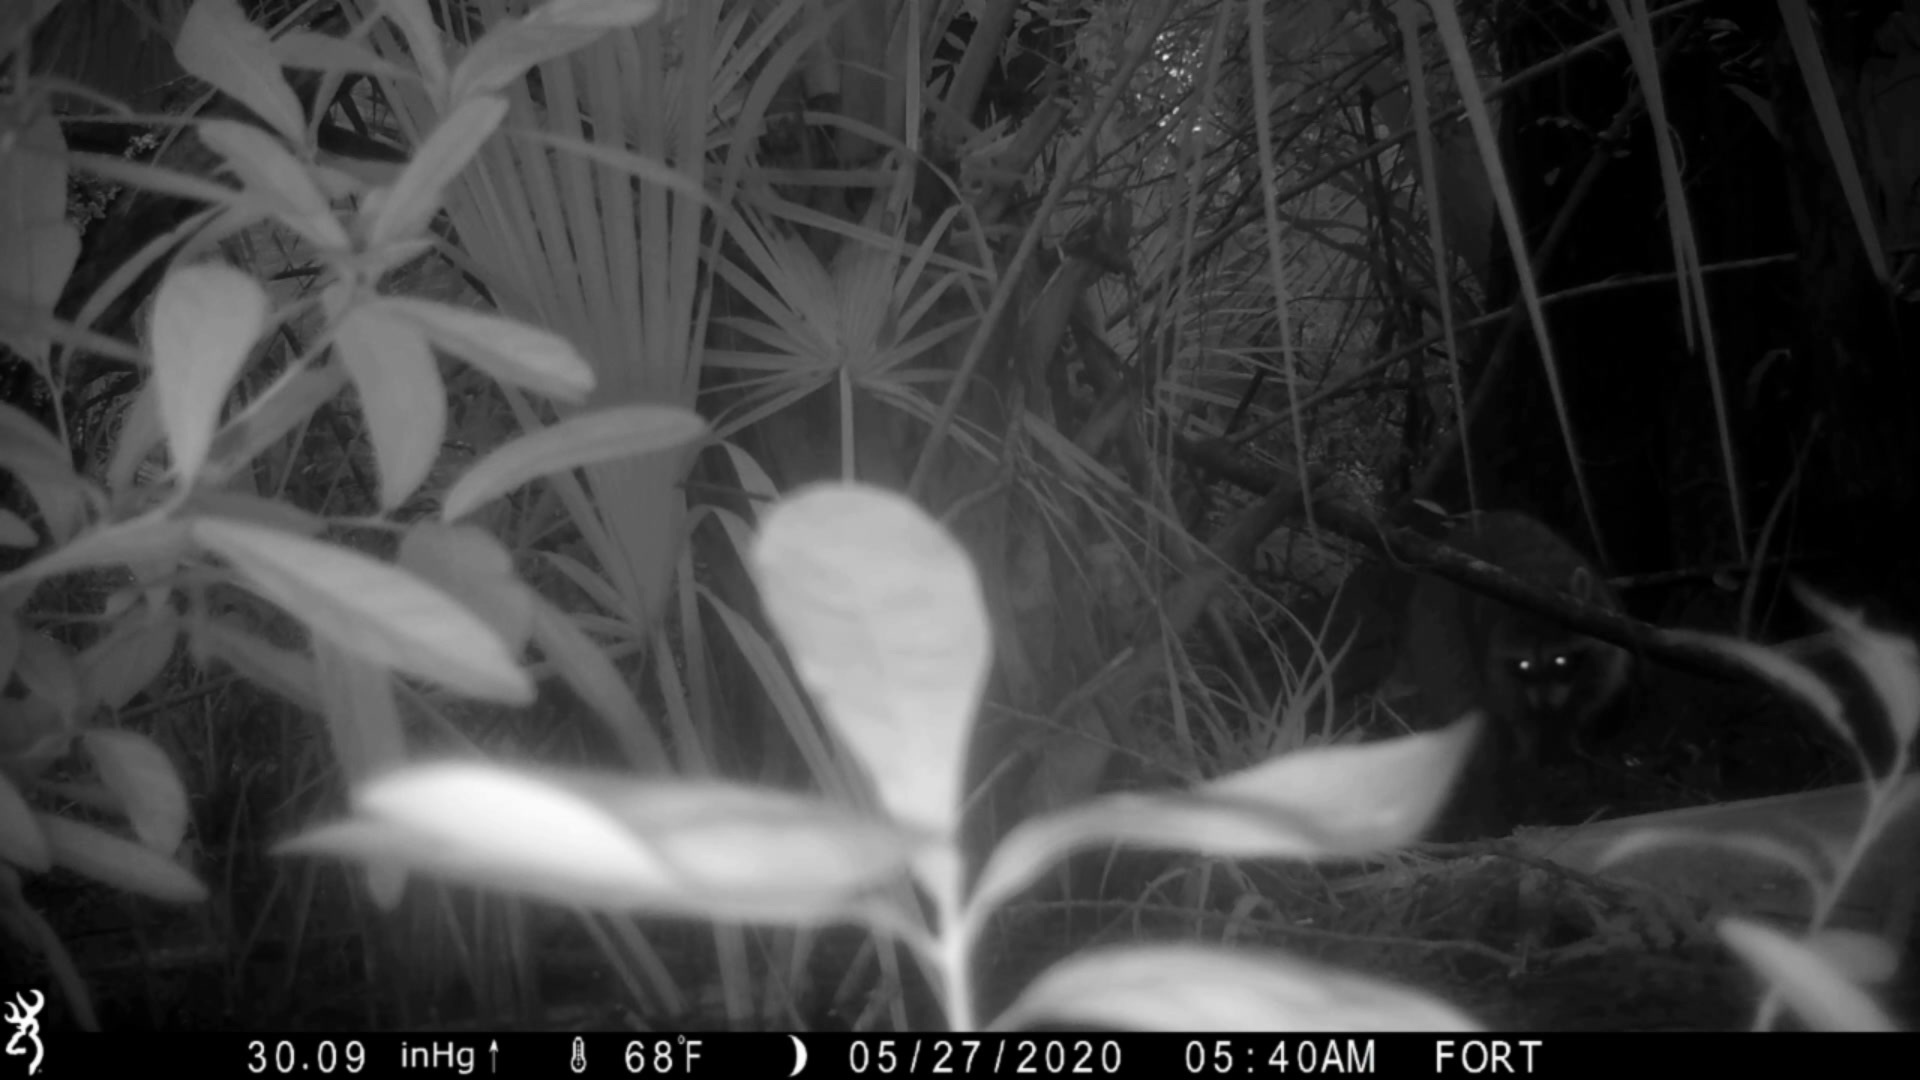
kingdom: Animalia
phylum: Chordata
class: Mammalia
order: Carnivora
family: Procyonidae
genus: Procyon
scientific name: Procyon lotor
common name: Raccoon
